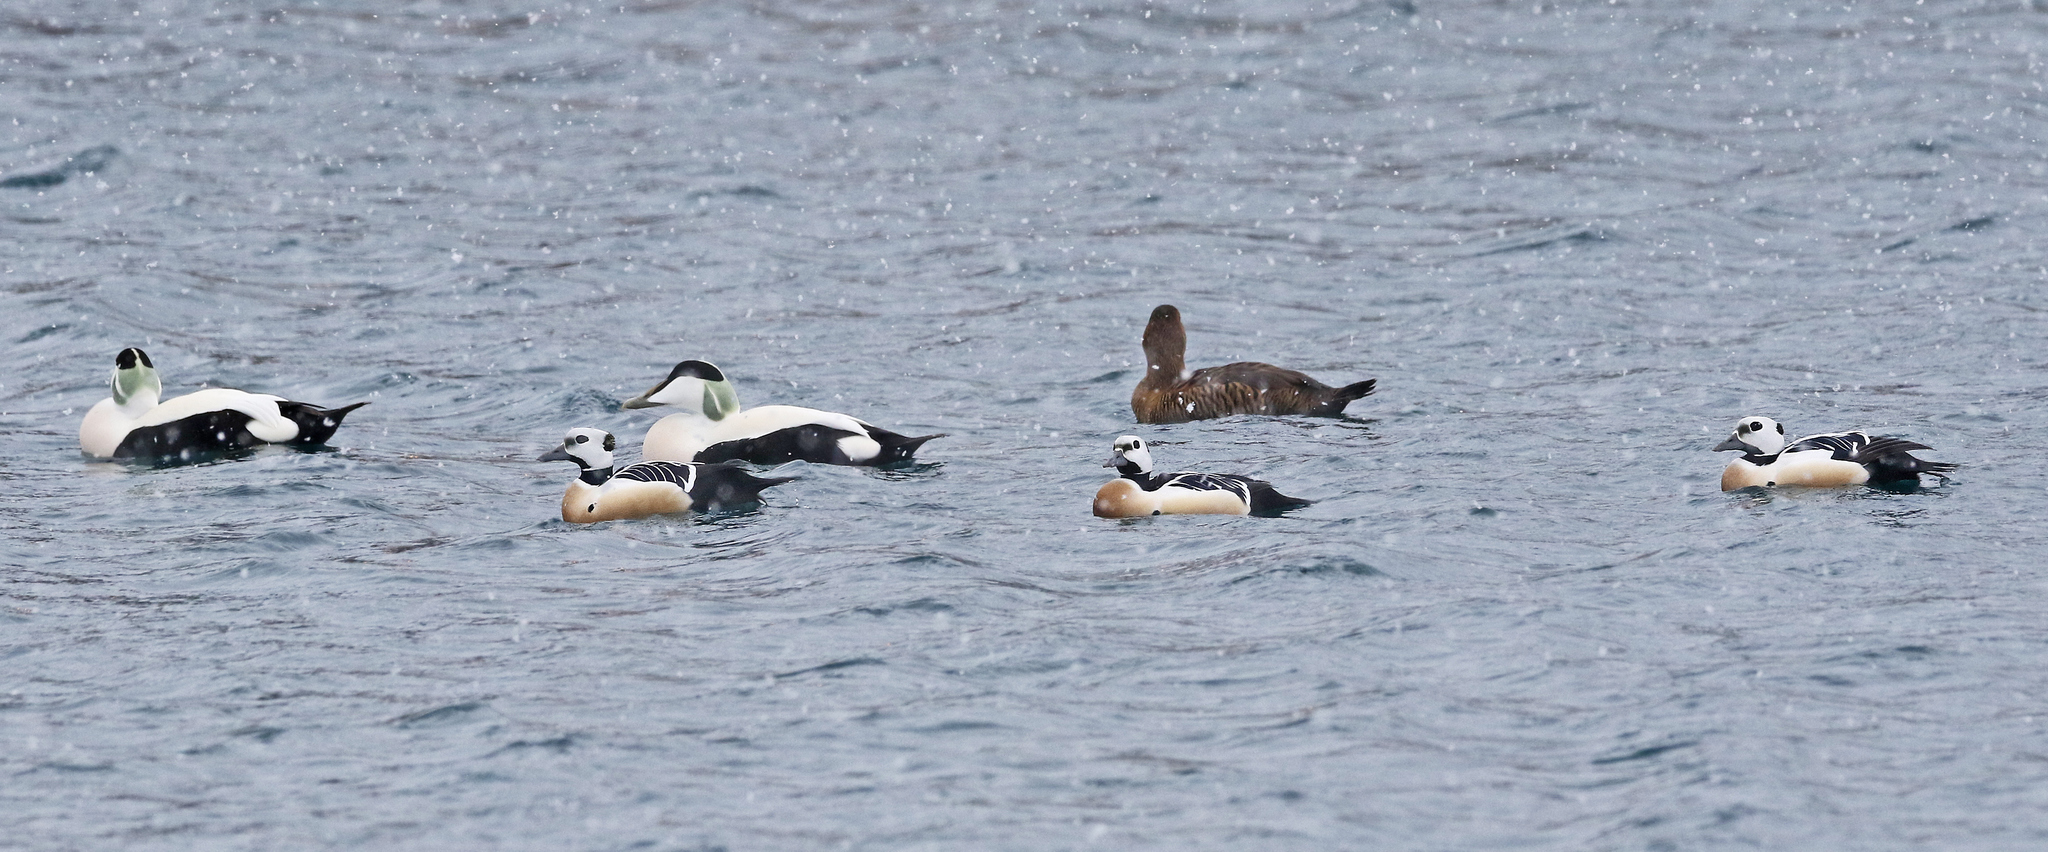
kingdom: Animalia
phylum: Chordata
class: Aves
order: Anseriformes
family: Anatidae
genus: Polysticta
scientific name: Polysticta stelleri
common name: Steller's eider
